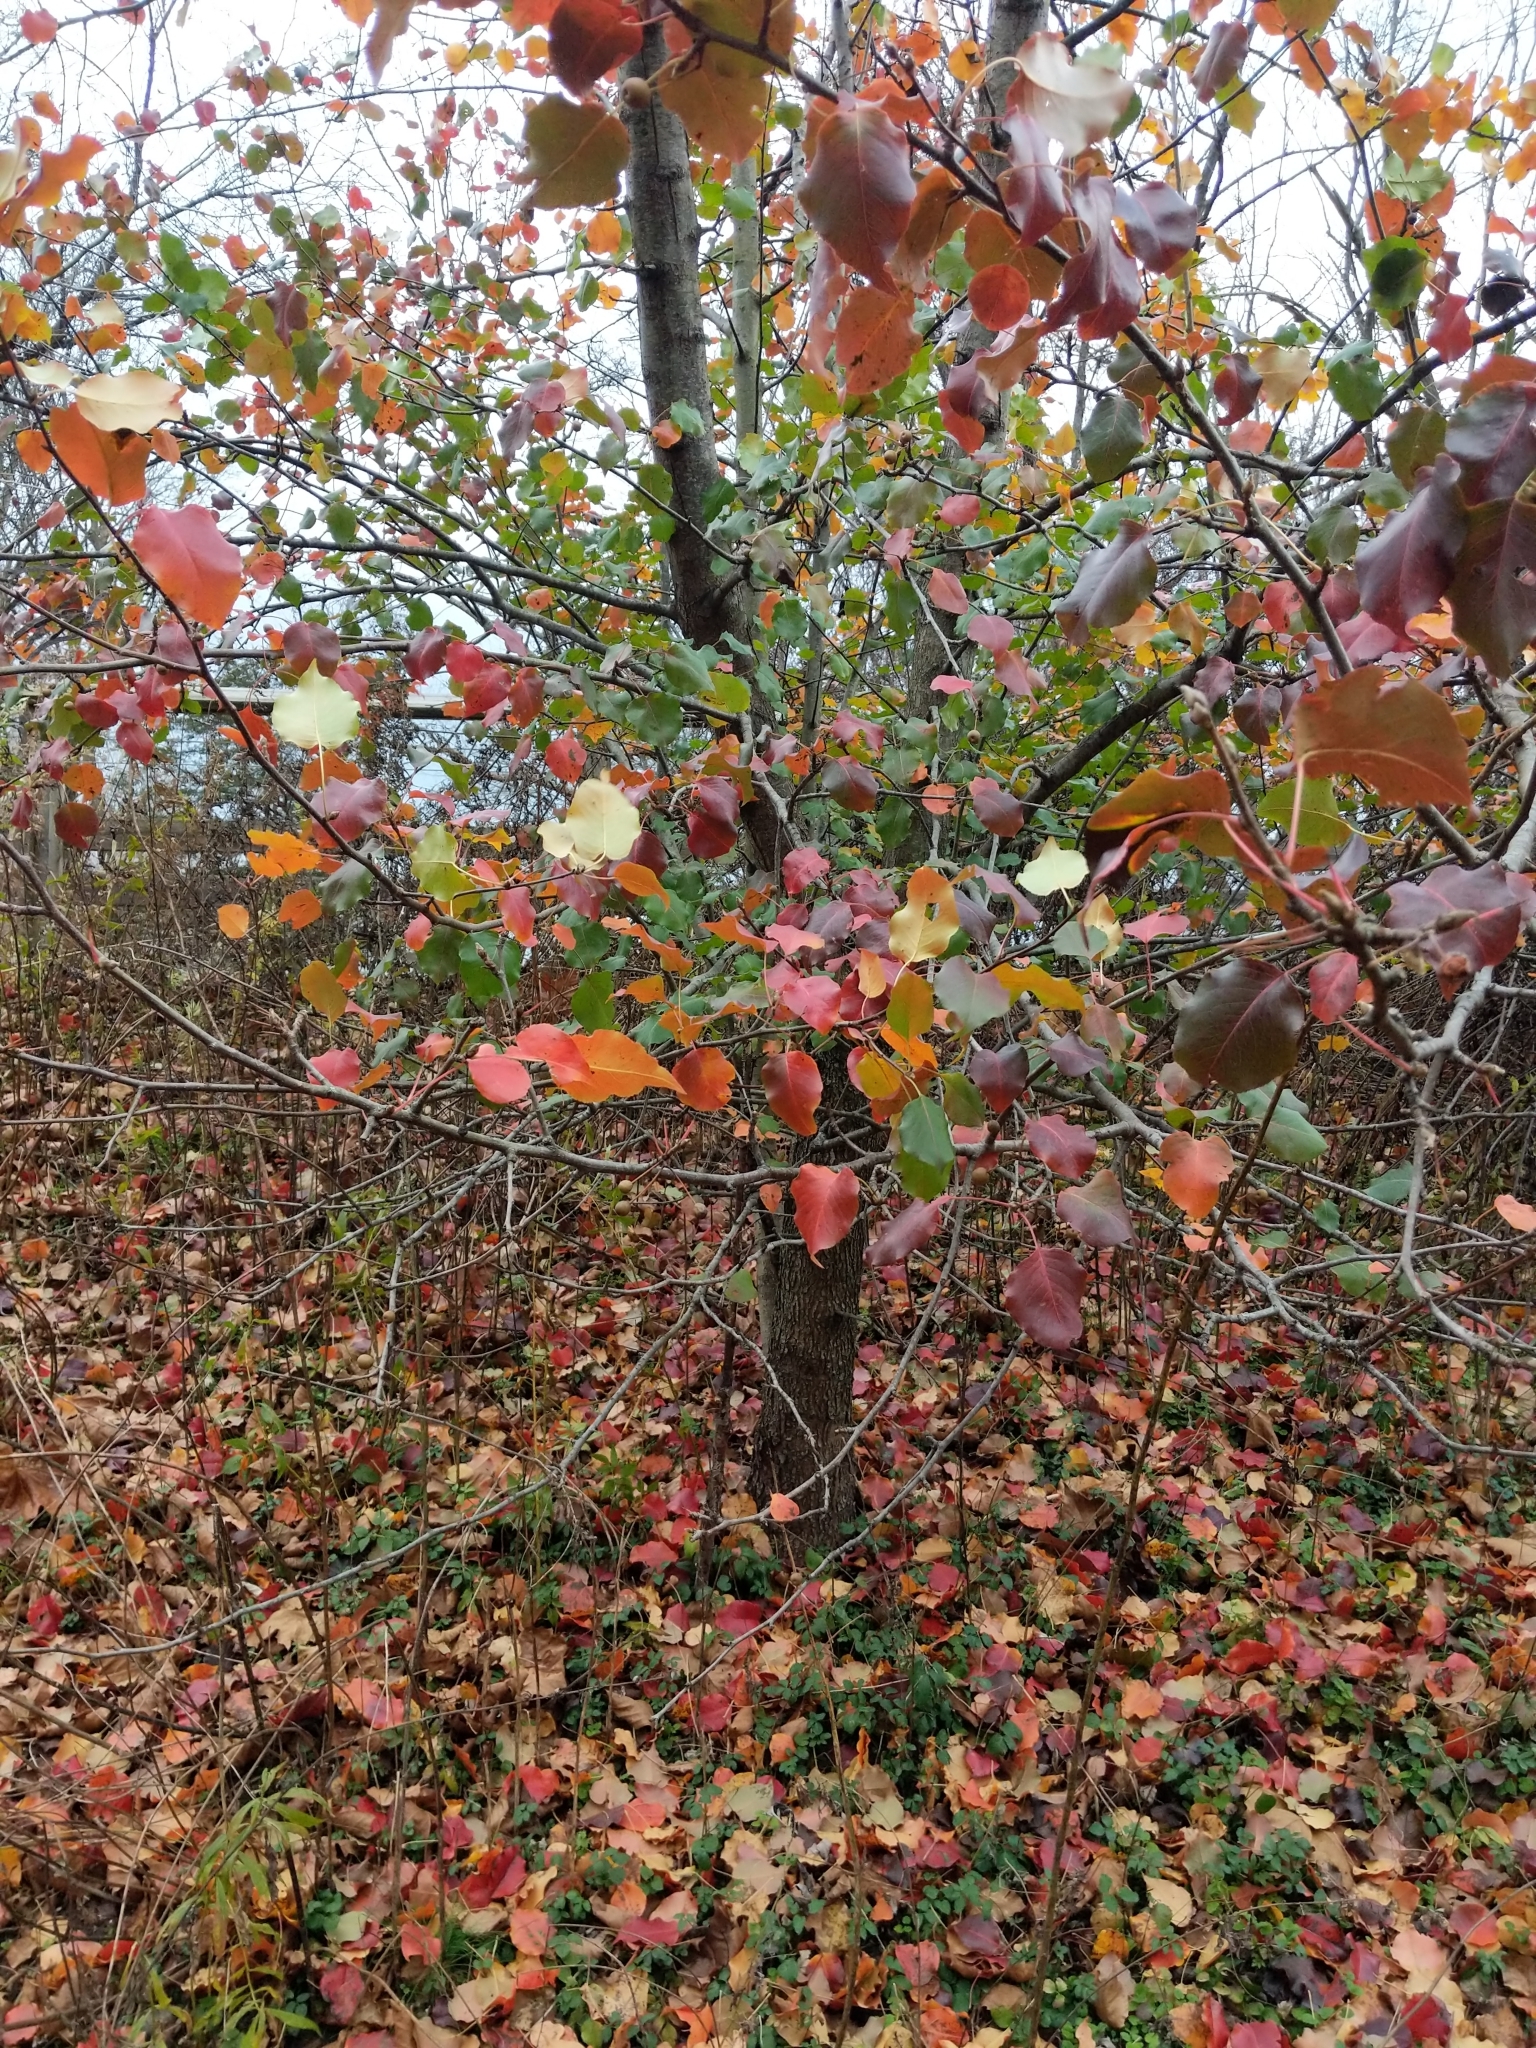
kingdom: Plantae
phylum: Tracheophyta
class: Magnoliopsida
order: Rosales
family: Rosaceae
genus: Pyrus
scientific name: Pyrus calleryana
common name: Callery pear
